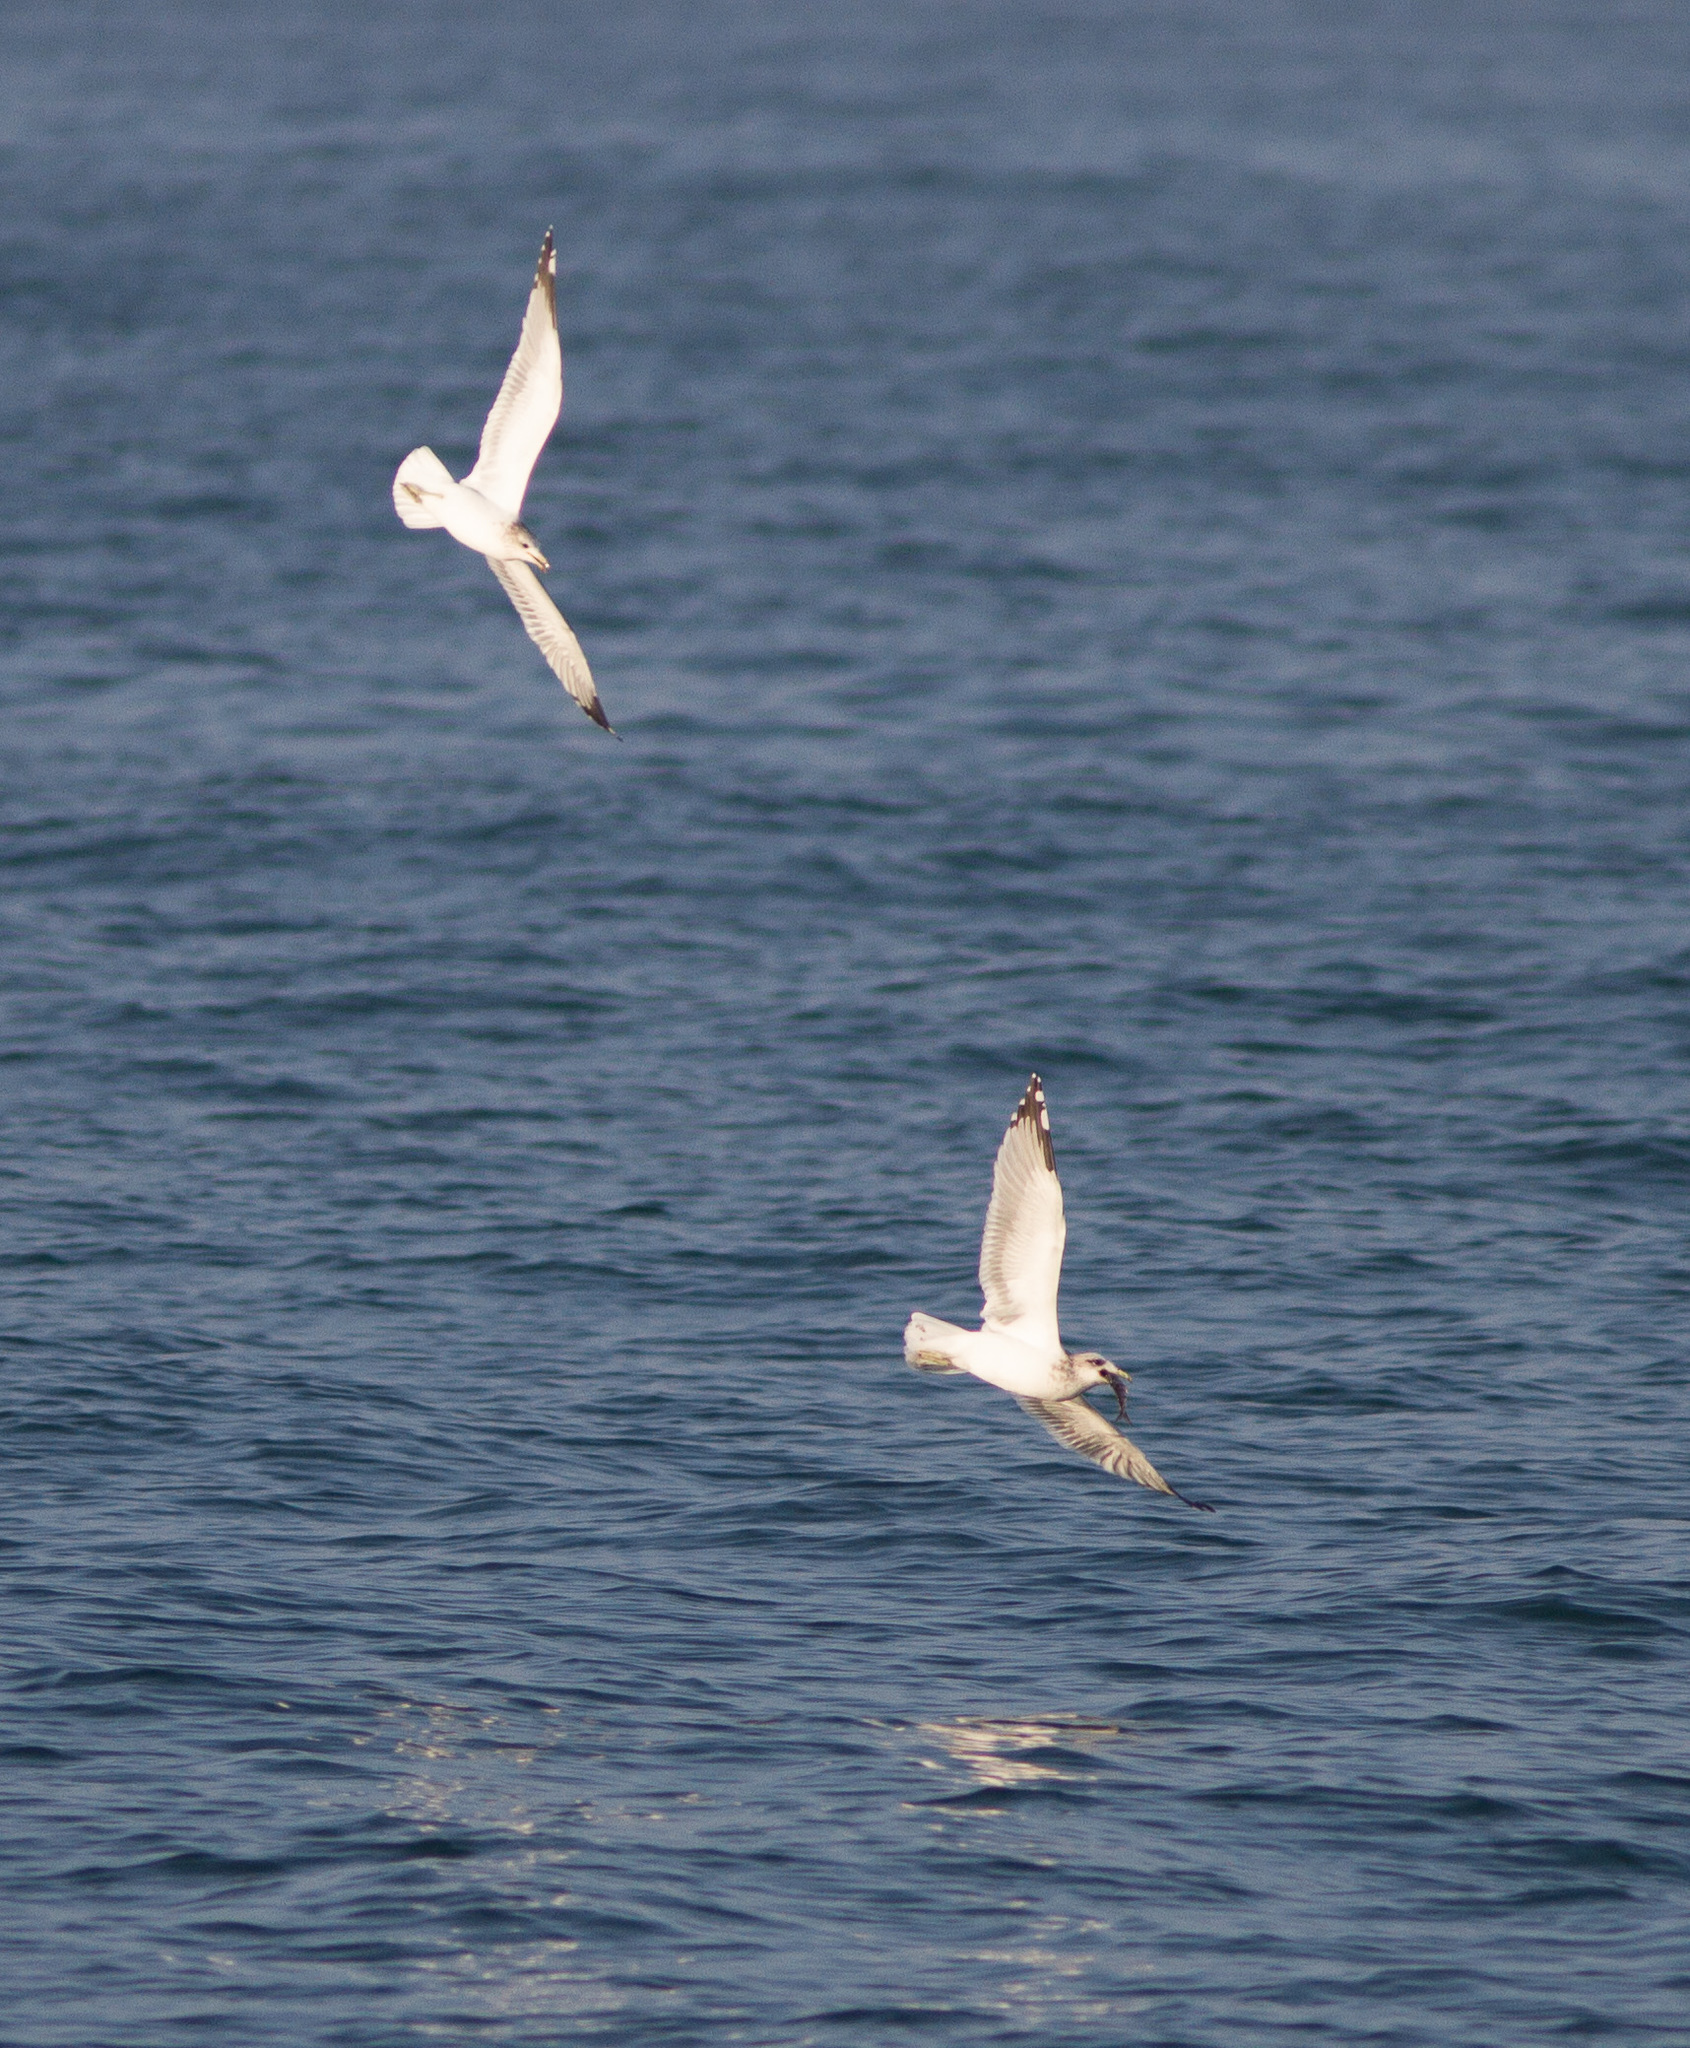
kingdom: Animalia
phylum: Chordata
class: Aves
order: Charadriiformes
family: Laridae
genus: Larus
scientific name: Larus californicus
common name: California gull
